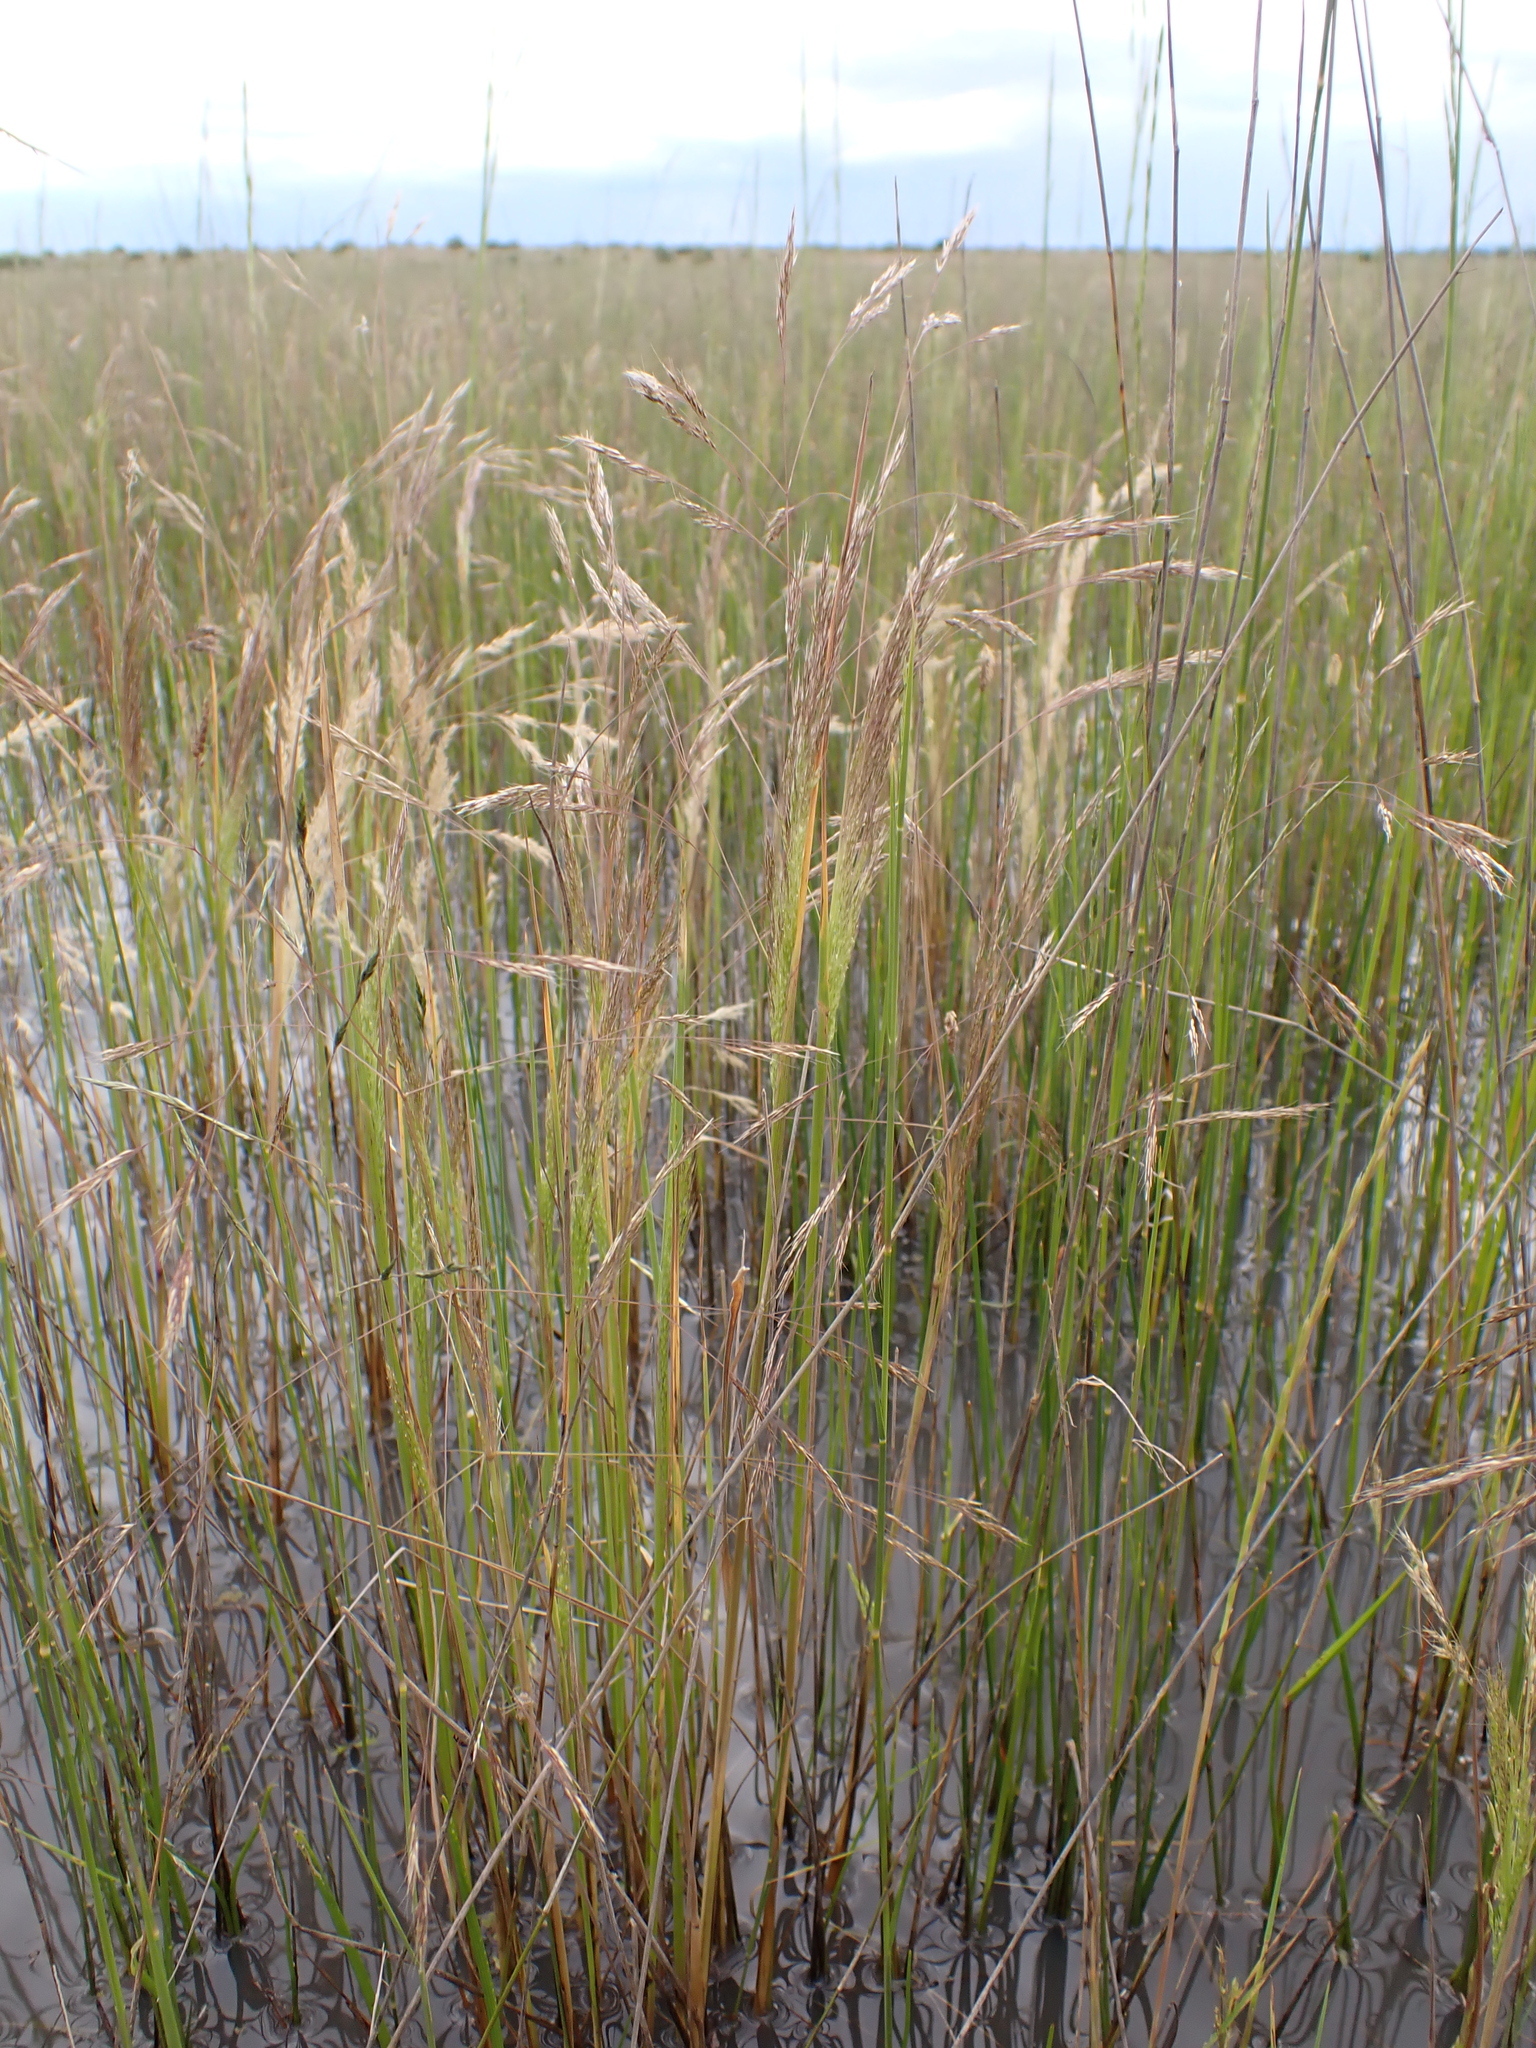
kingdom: Plantae
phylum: Tracheophyta
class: Liliopsida
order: Poales
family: Poaceae
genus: Lachnagrostis
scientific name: Lachnagrostis aemula
